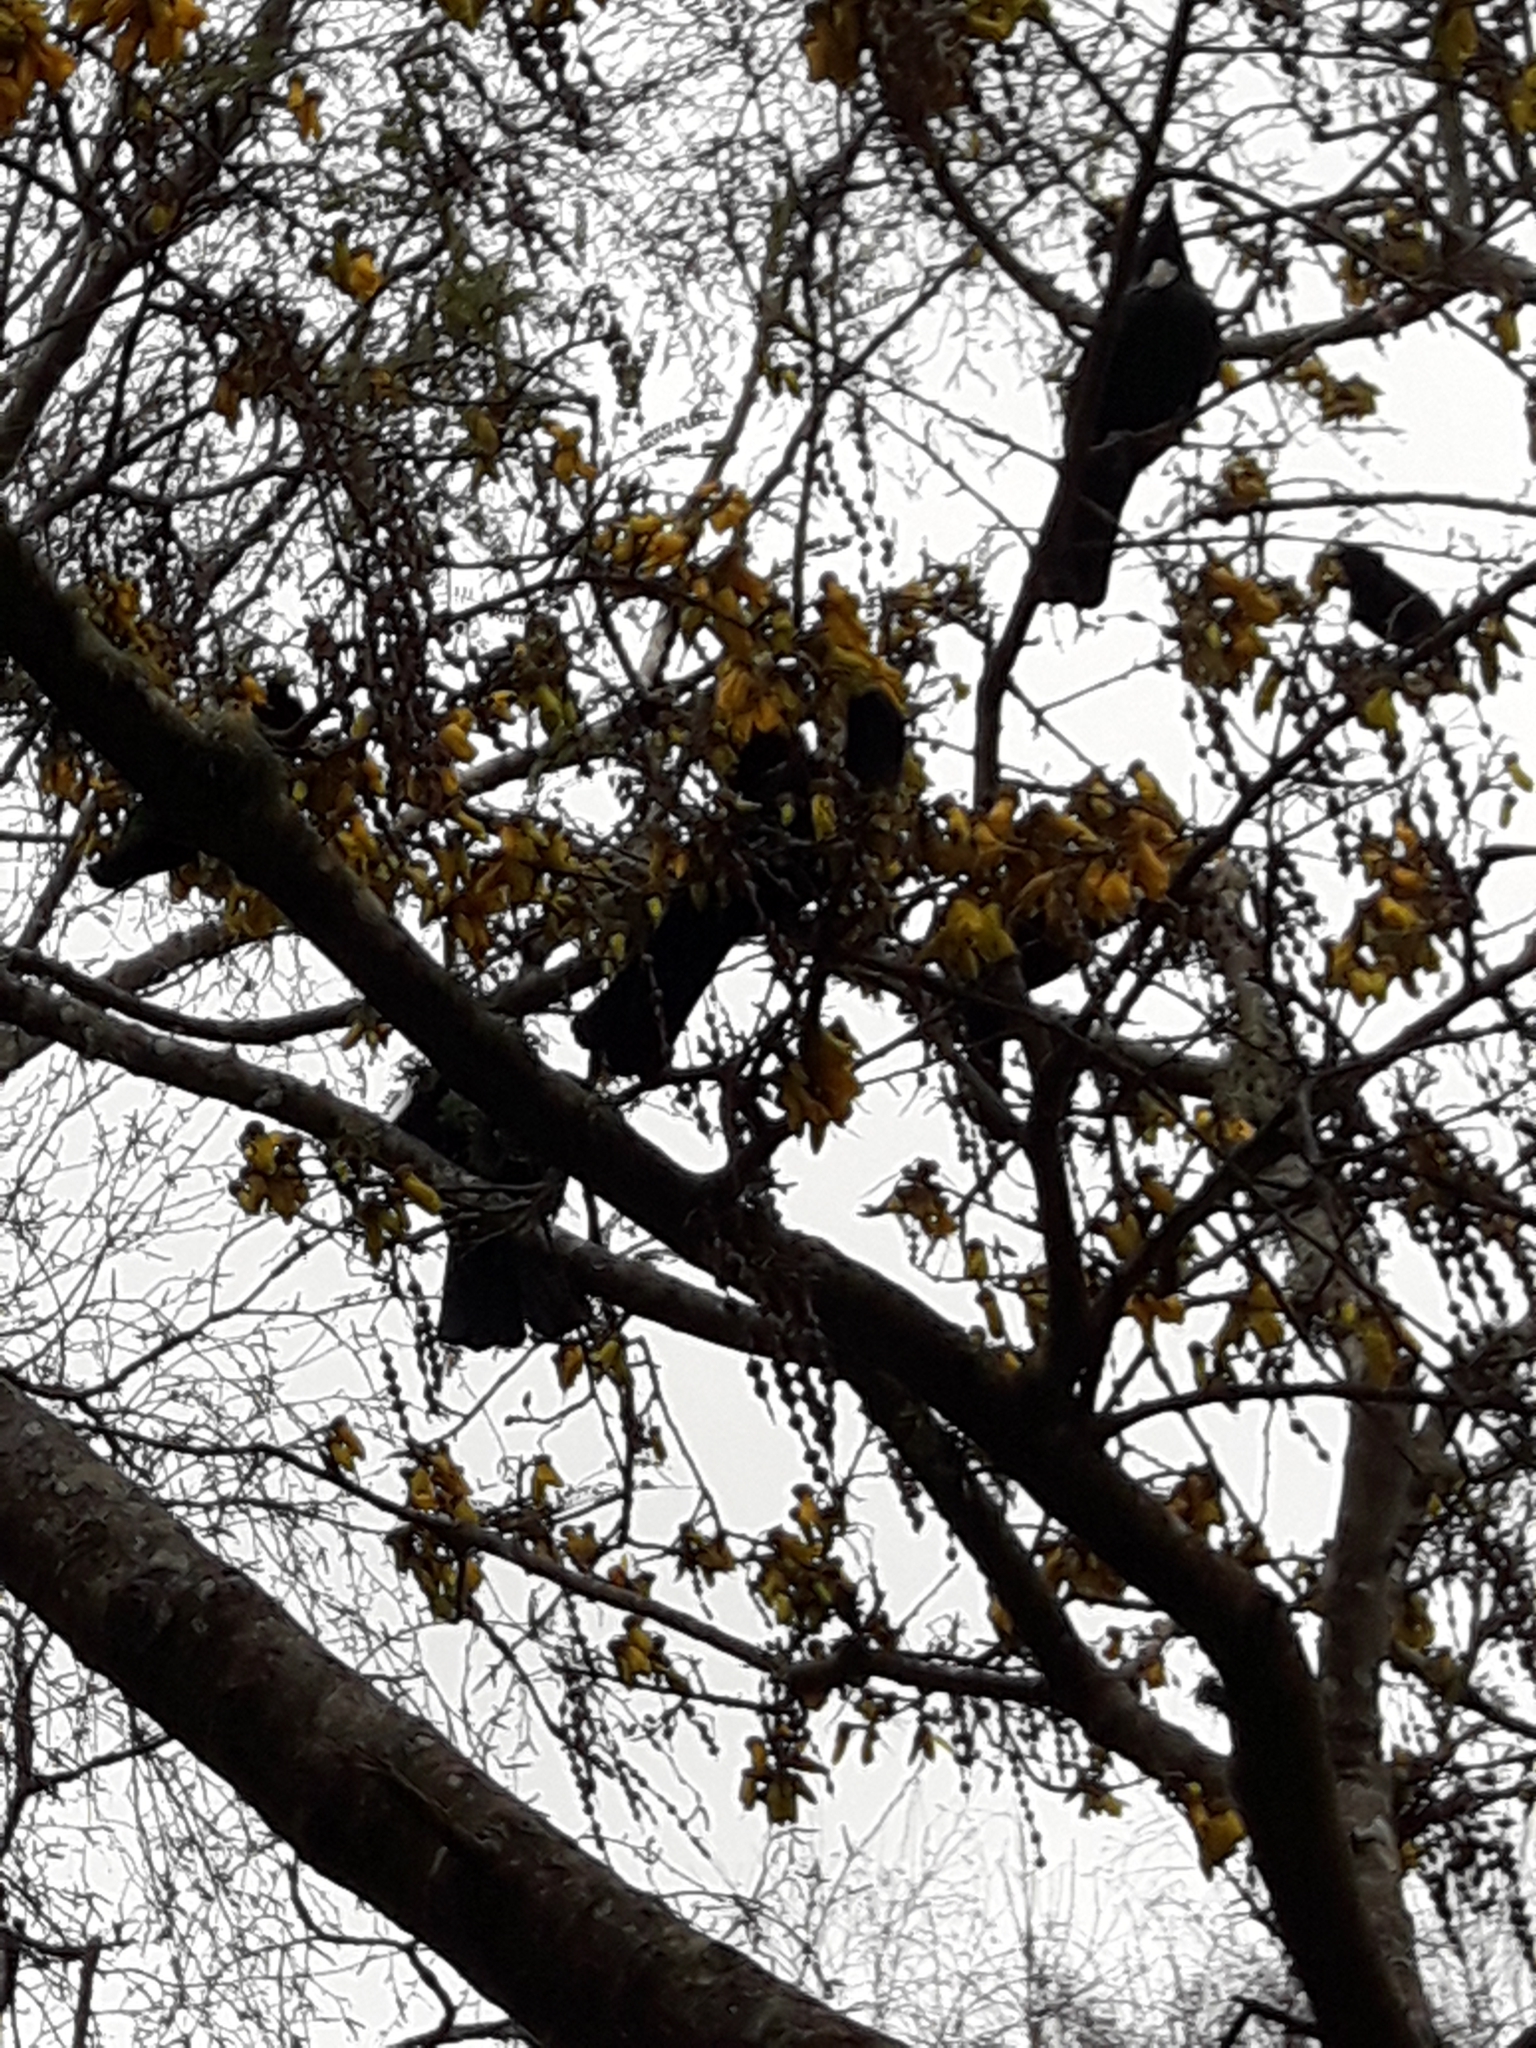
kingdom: Animalia
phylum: Chordata
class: Aves
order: Passeriformes
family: Meliphagidae
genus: Prosthemadera
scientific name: Prosthemadera novaeseelandiae
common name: Tui
